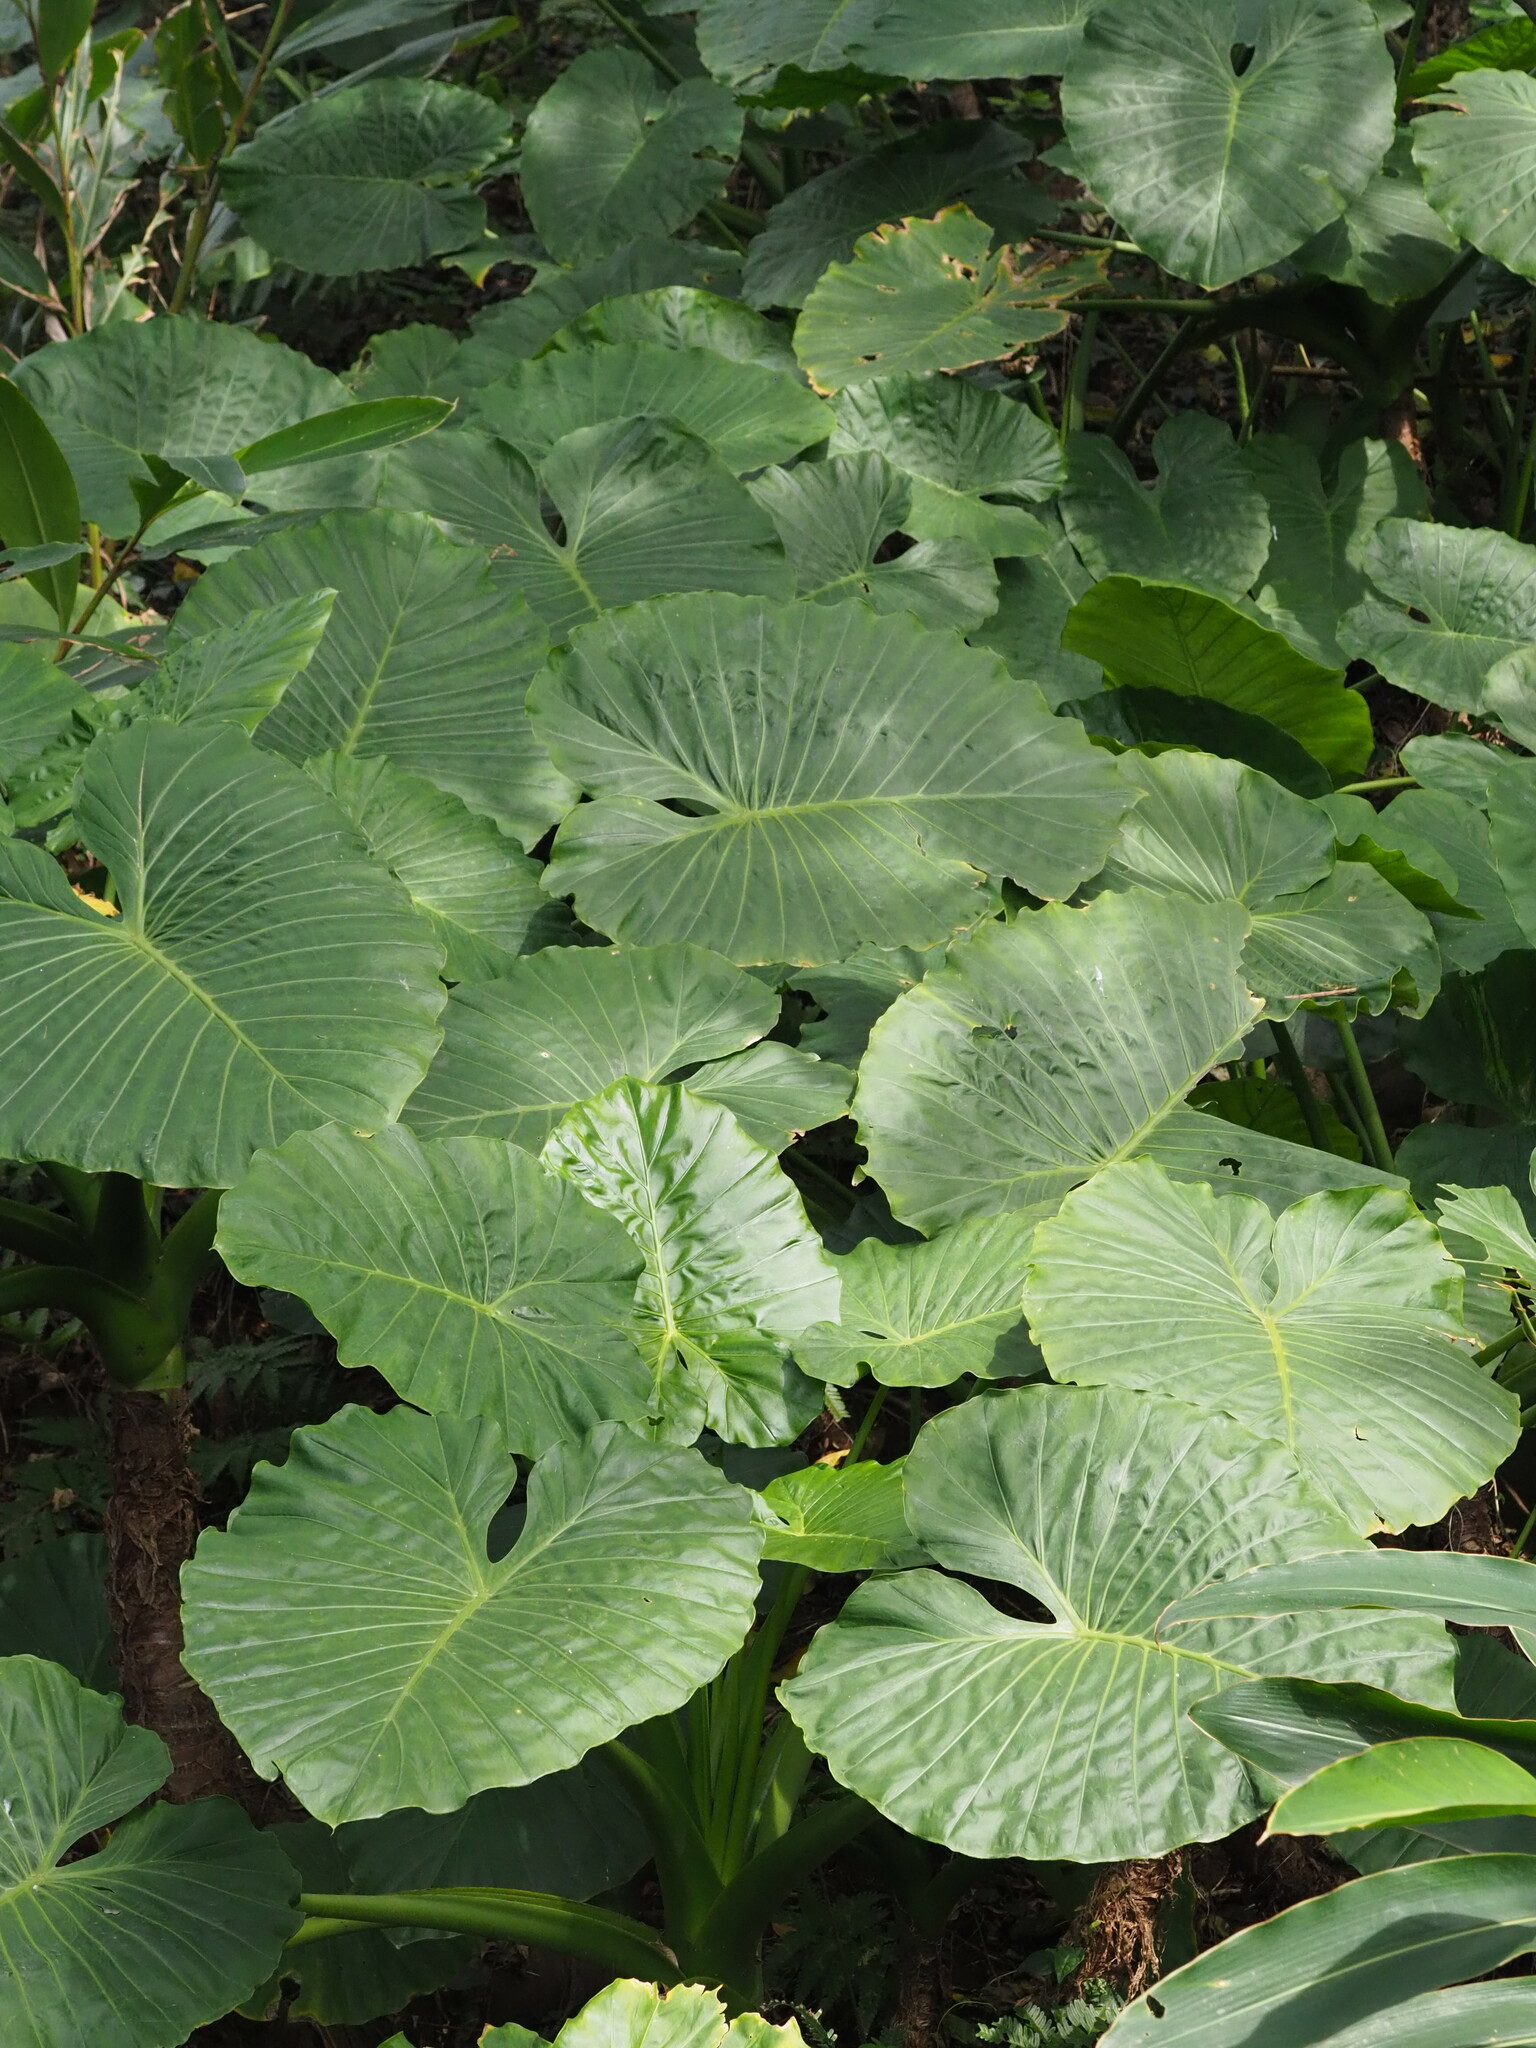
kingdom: Plantae
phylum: Tracheophyta
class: Liliopsida
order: Alismatales
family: Araceae
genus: Alocasia
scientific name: Alocasia odora
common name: Asian taro
